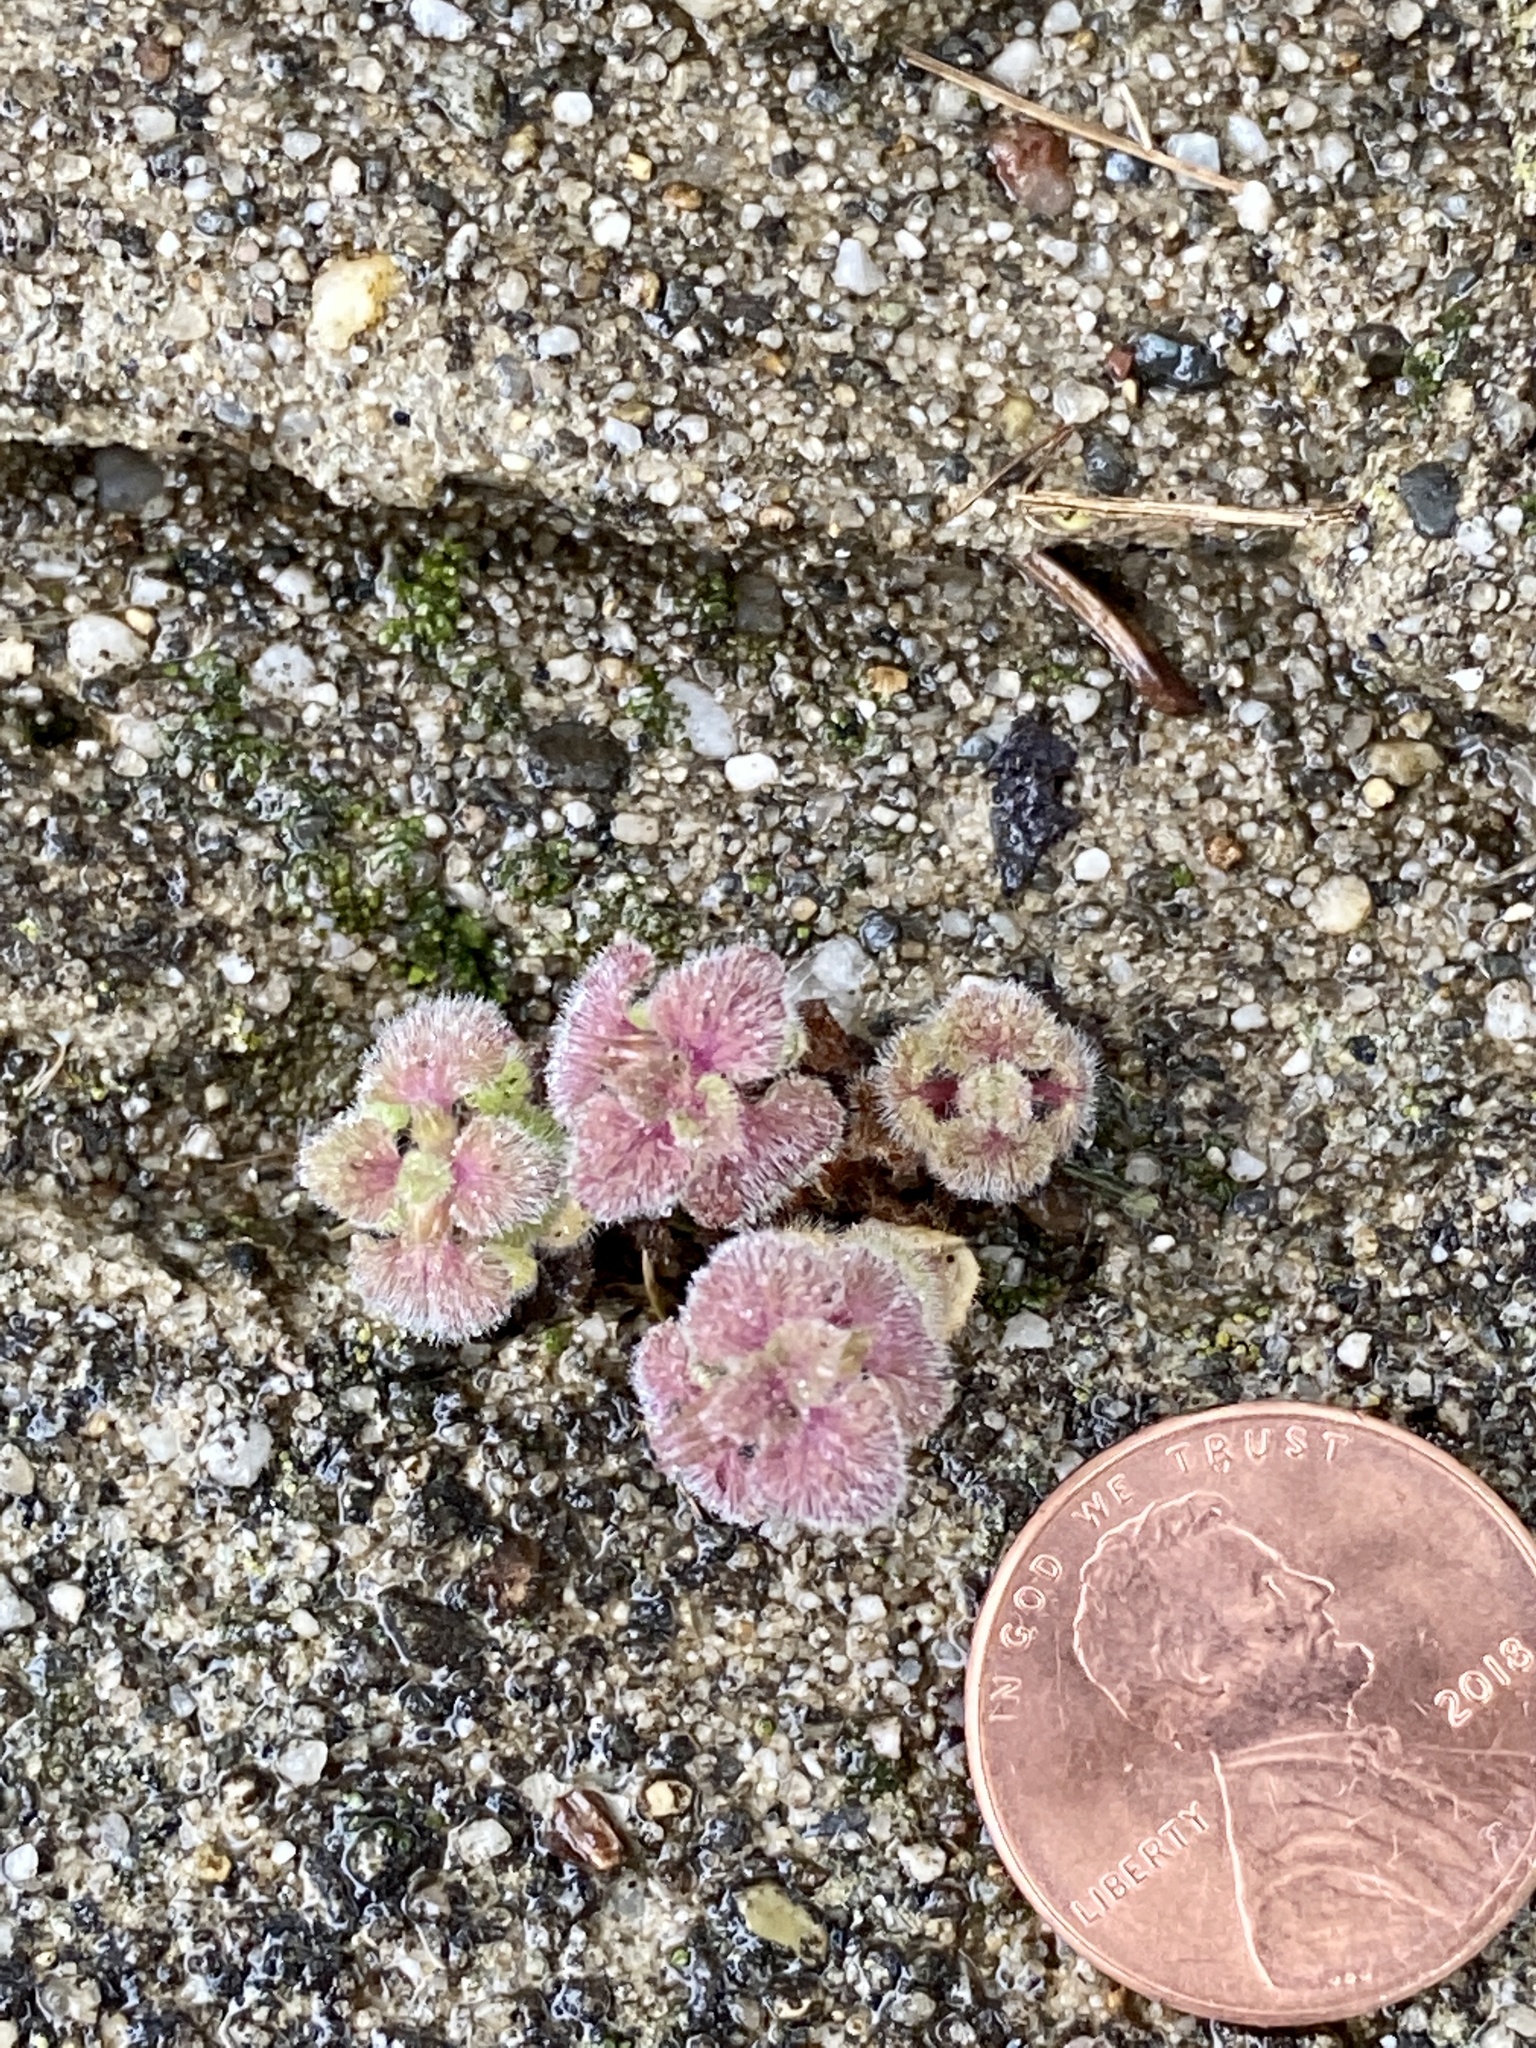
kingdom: Plantae
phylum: Tracheophyta
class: Magnoliopsida
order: Lamiales
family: Lamiaceae
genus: Lamium
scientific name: Lamium purpureum
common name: Red dead-nettle
